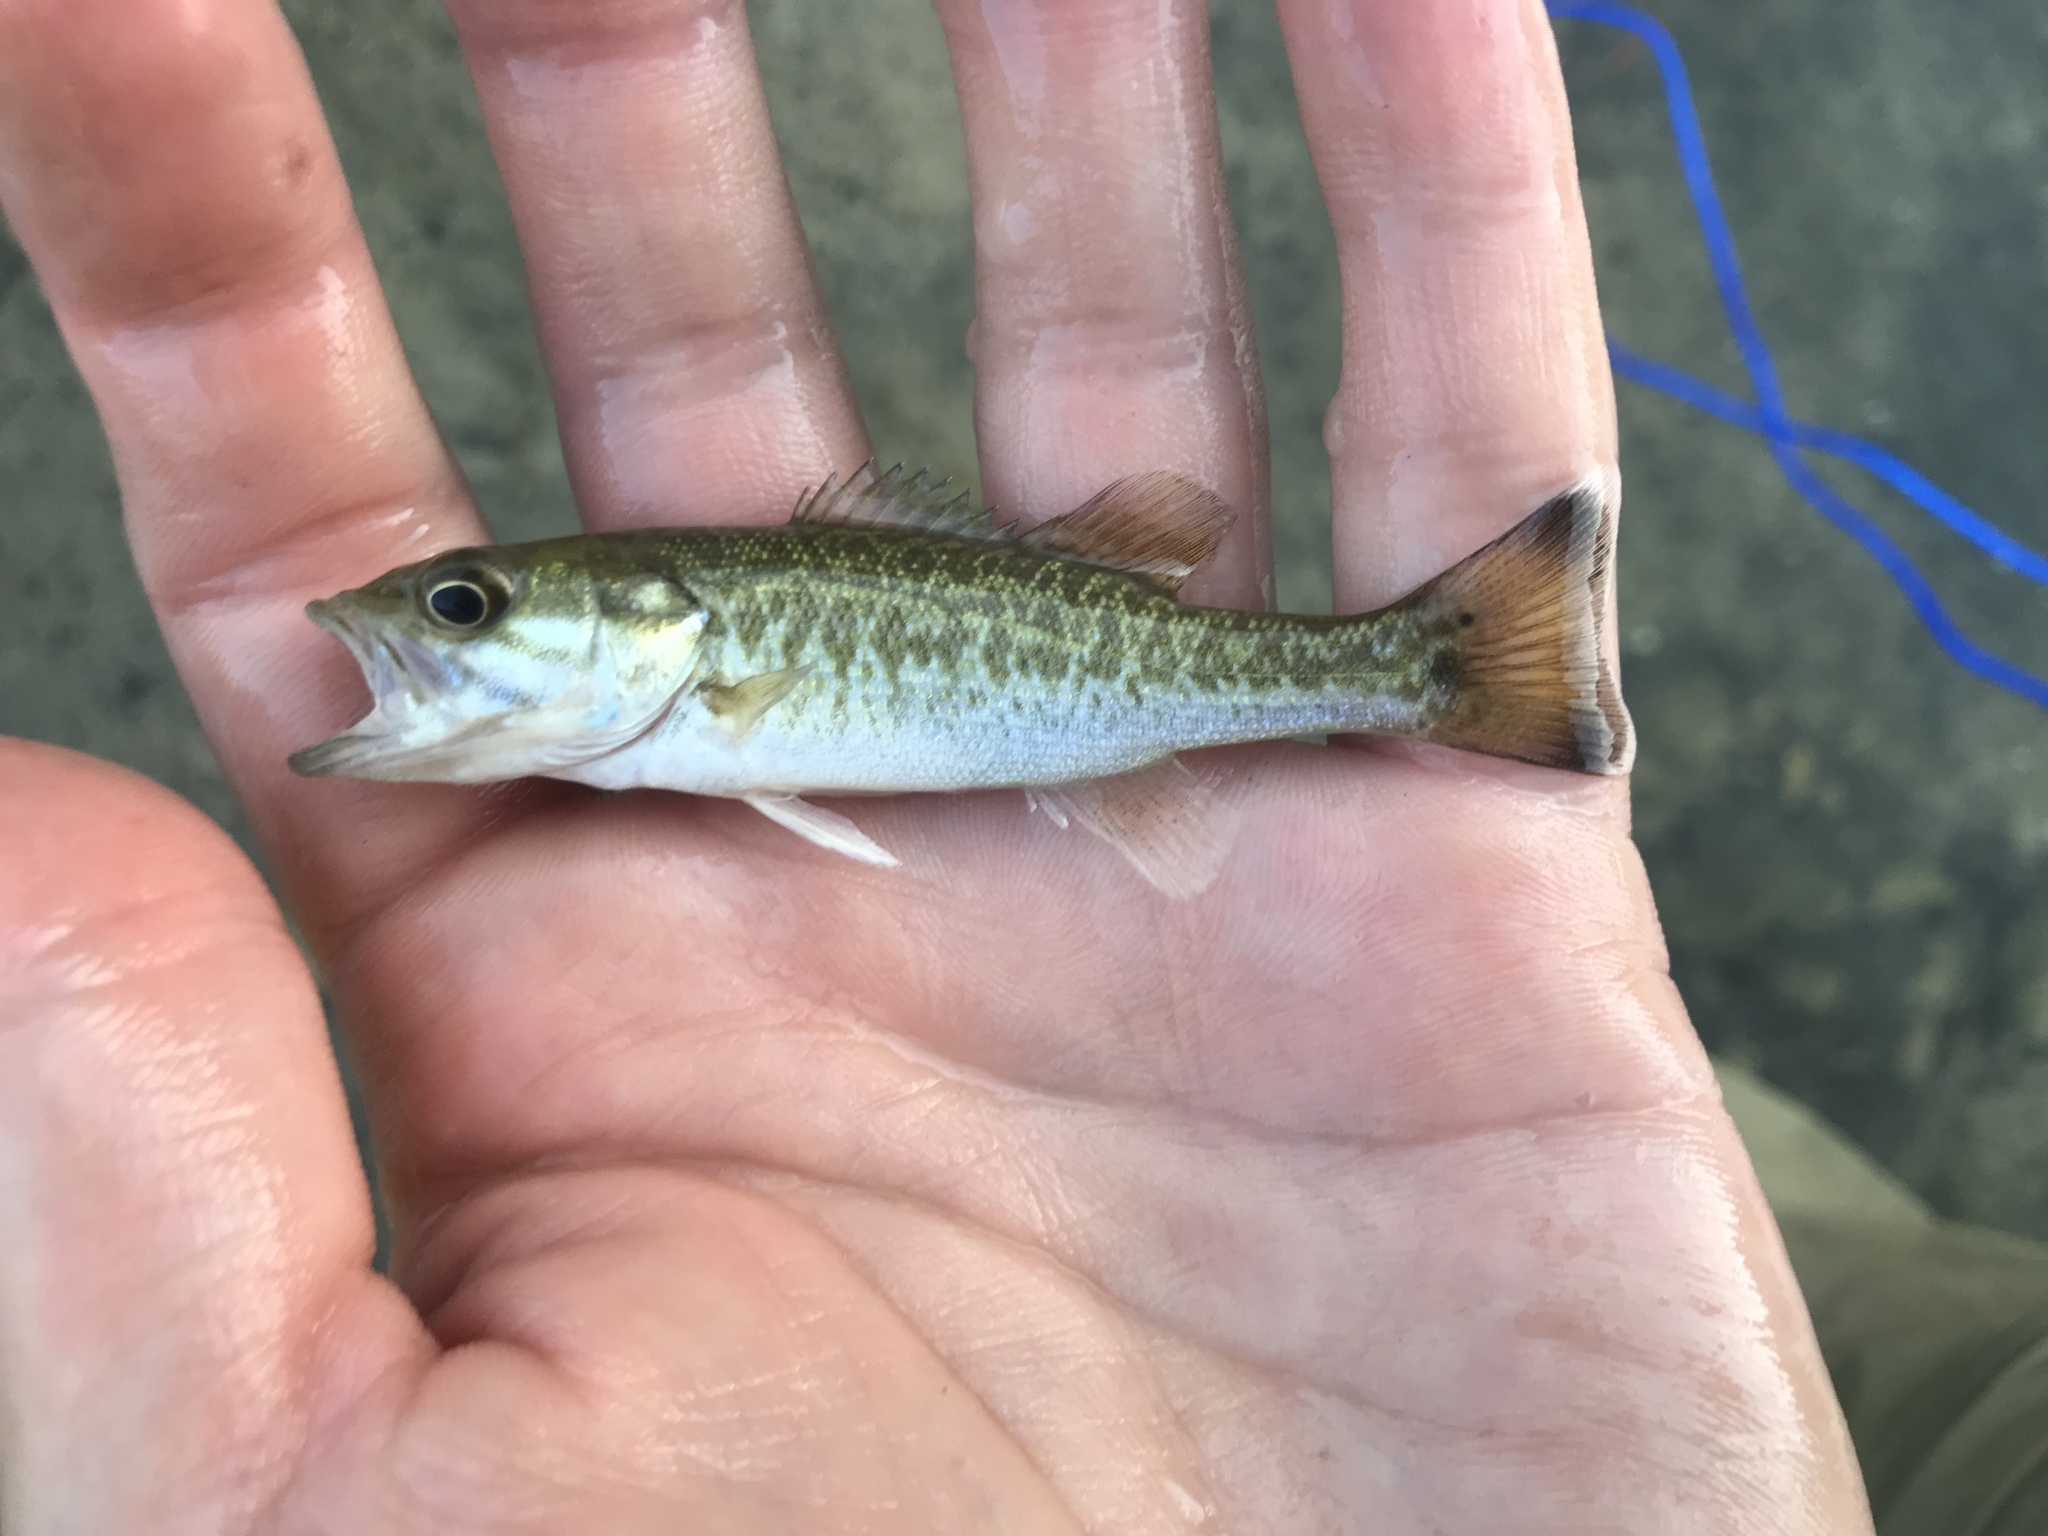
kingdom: Animalia
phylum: Chordata
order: Perciformes
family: Centrarchidae
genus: Micropterus
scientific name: Micropterus treculii
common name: Guadalupe bass
